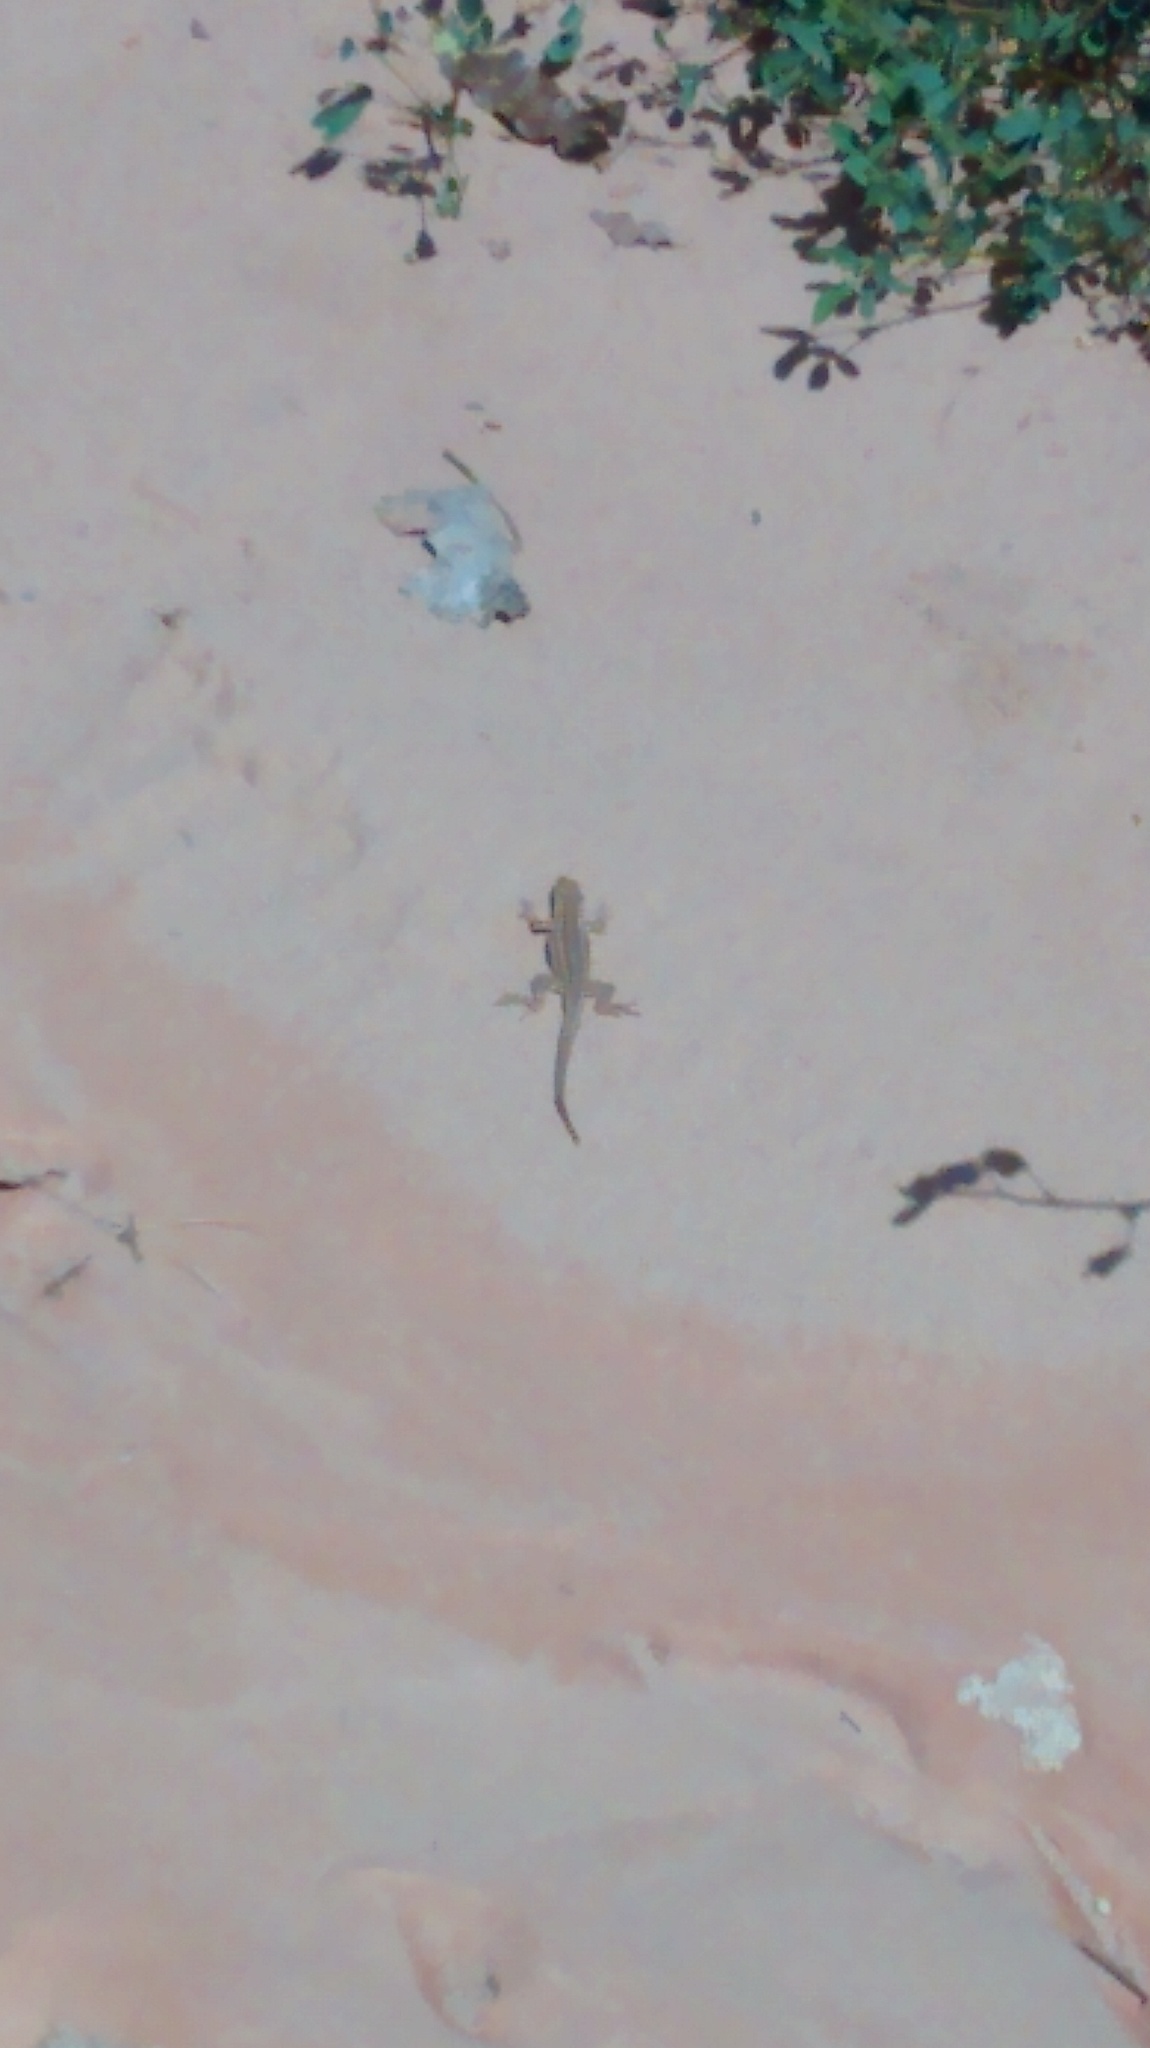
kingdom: Animalia
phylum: Chordata
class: Squamata
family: Phrynosomatidae
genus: Uta
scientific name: Uta stansburiana
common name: Side-blotched lizard
